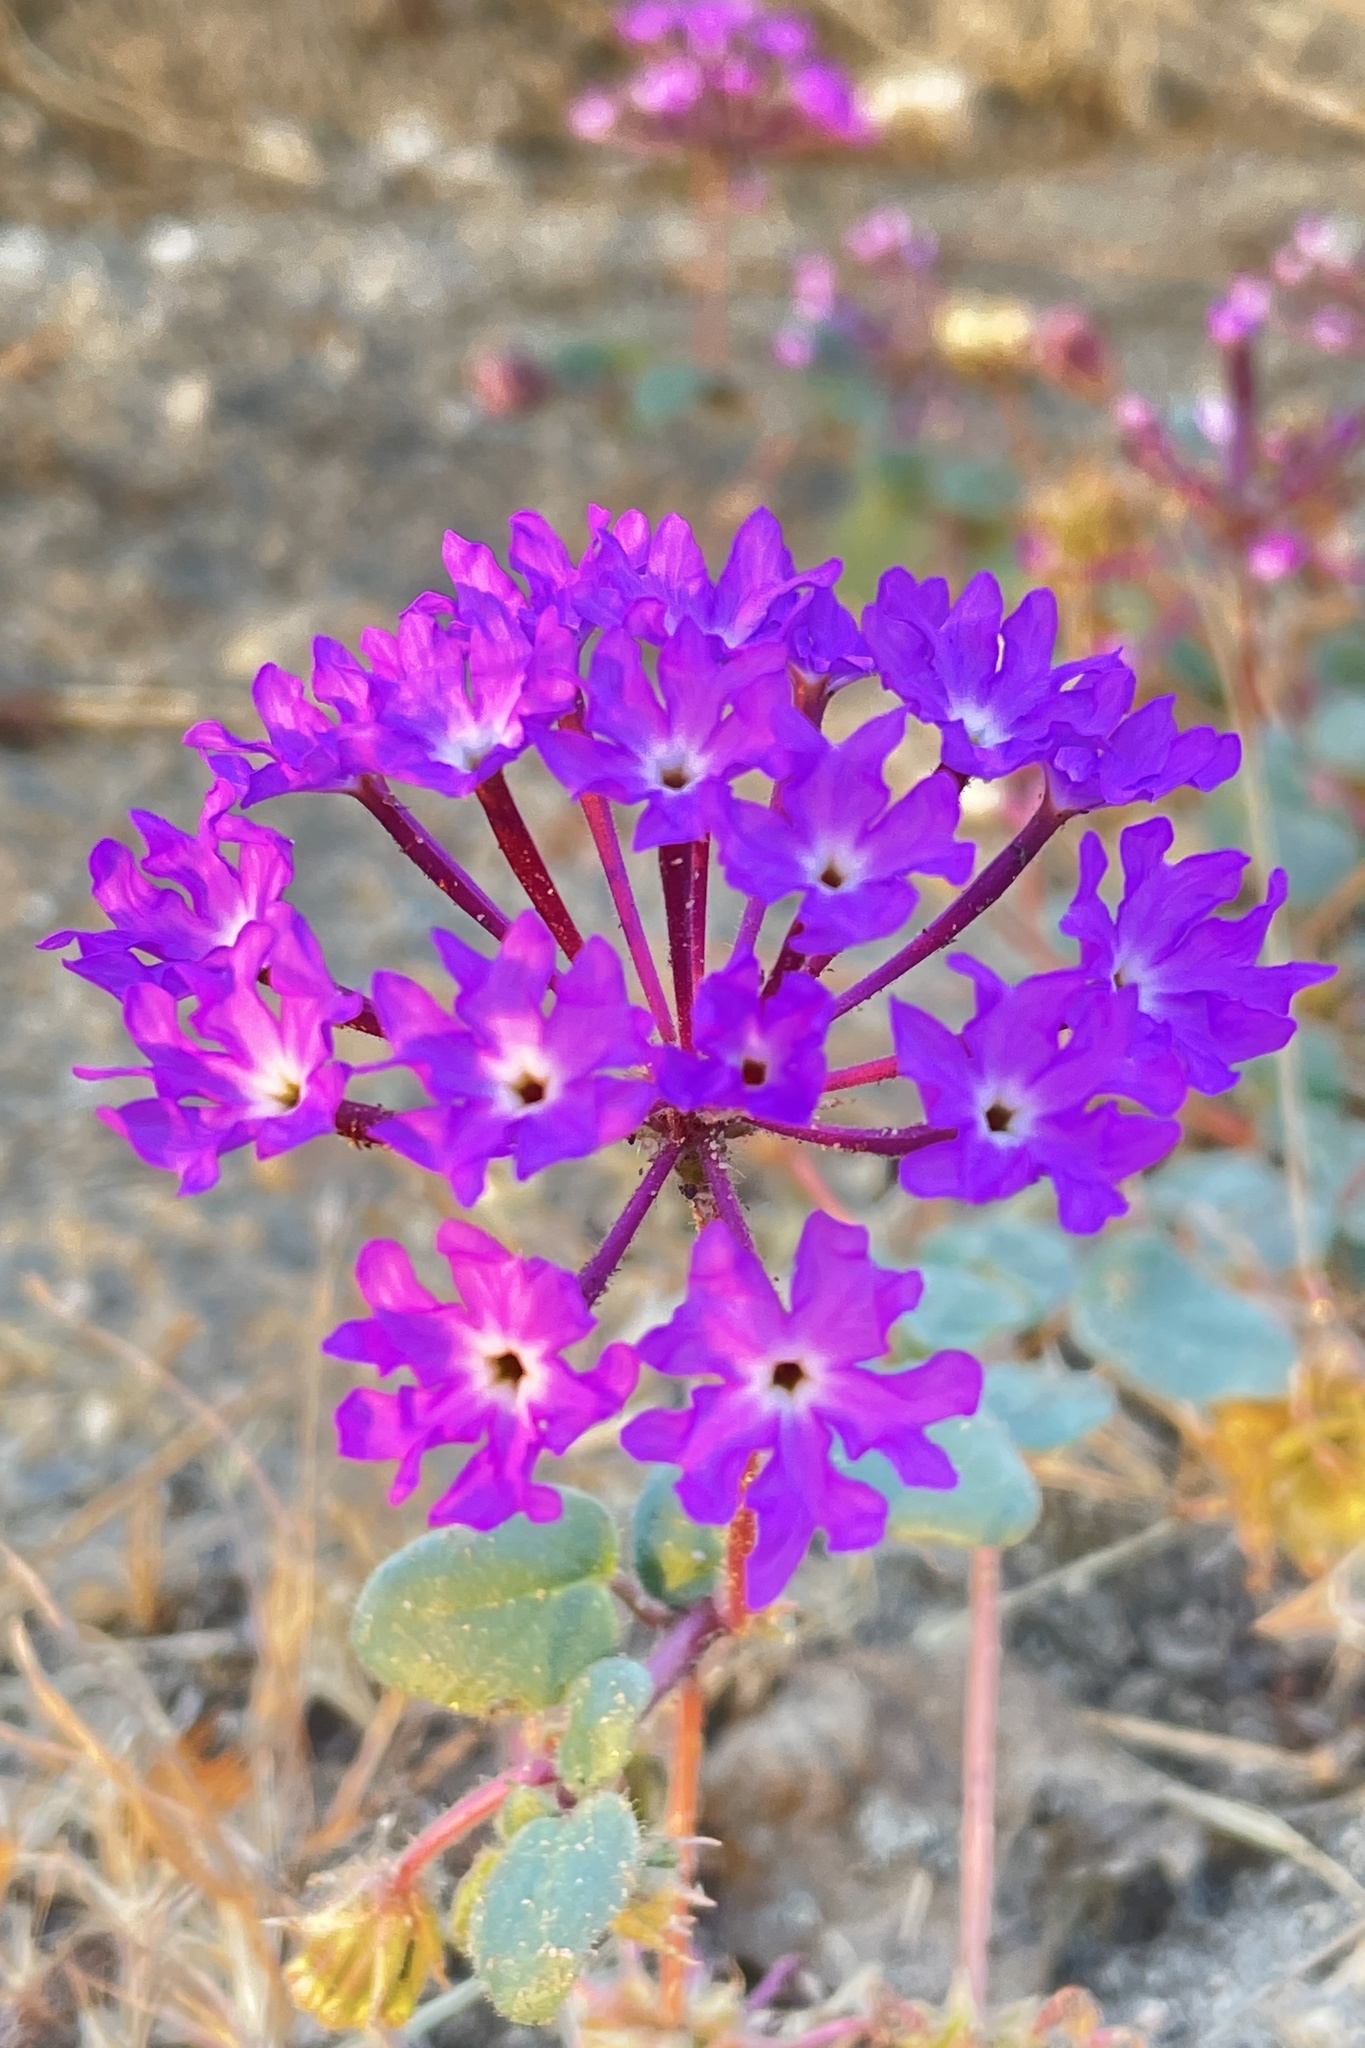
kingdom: Plantae
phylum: Tracheophyta
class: Magnoliopsida
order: Caryophyllales
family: Nyctaginaceae
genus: Abronia
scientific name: Abronia villosa
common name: Desert sand-verbena
